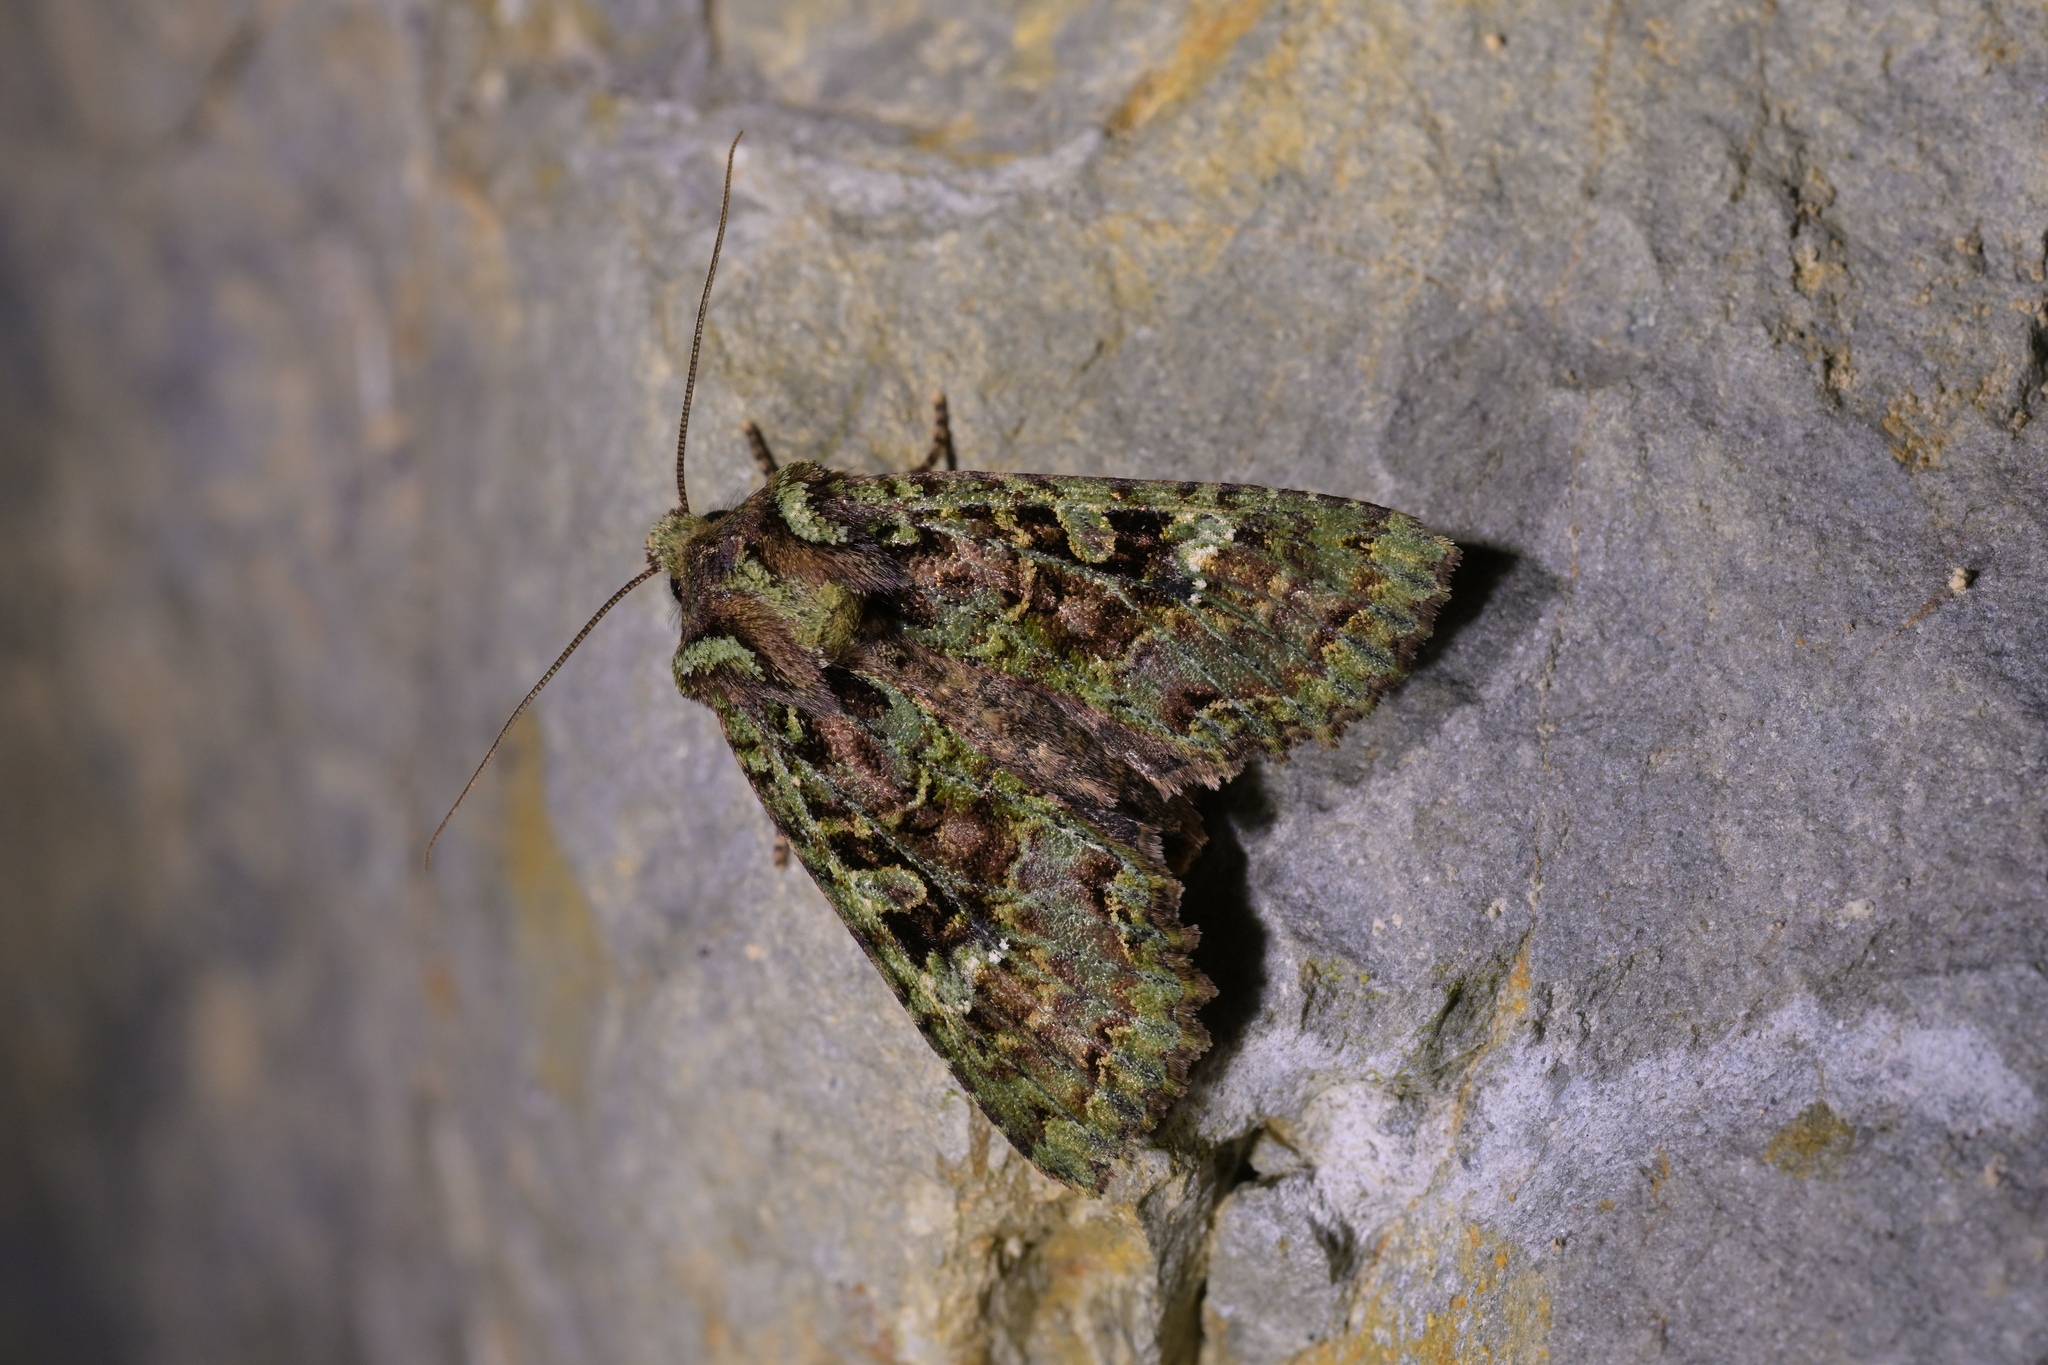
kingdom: Animalia
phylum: Arthropoda
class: Insecta
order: Lepidoptera
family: Noctuidae
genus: Meterana
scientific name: Meterana
